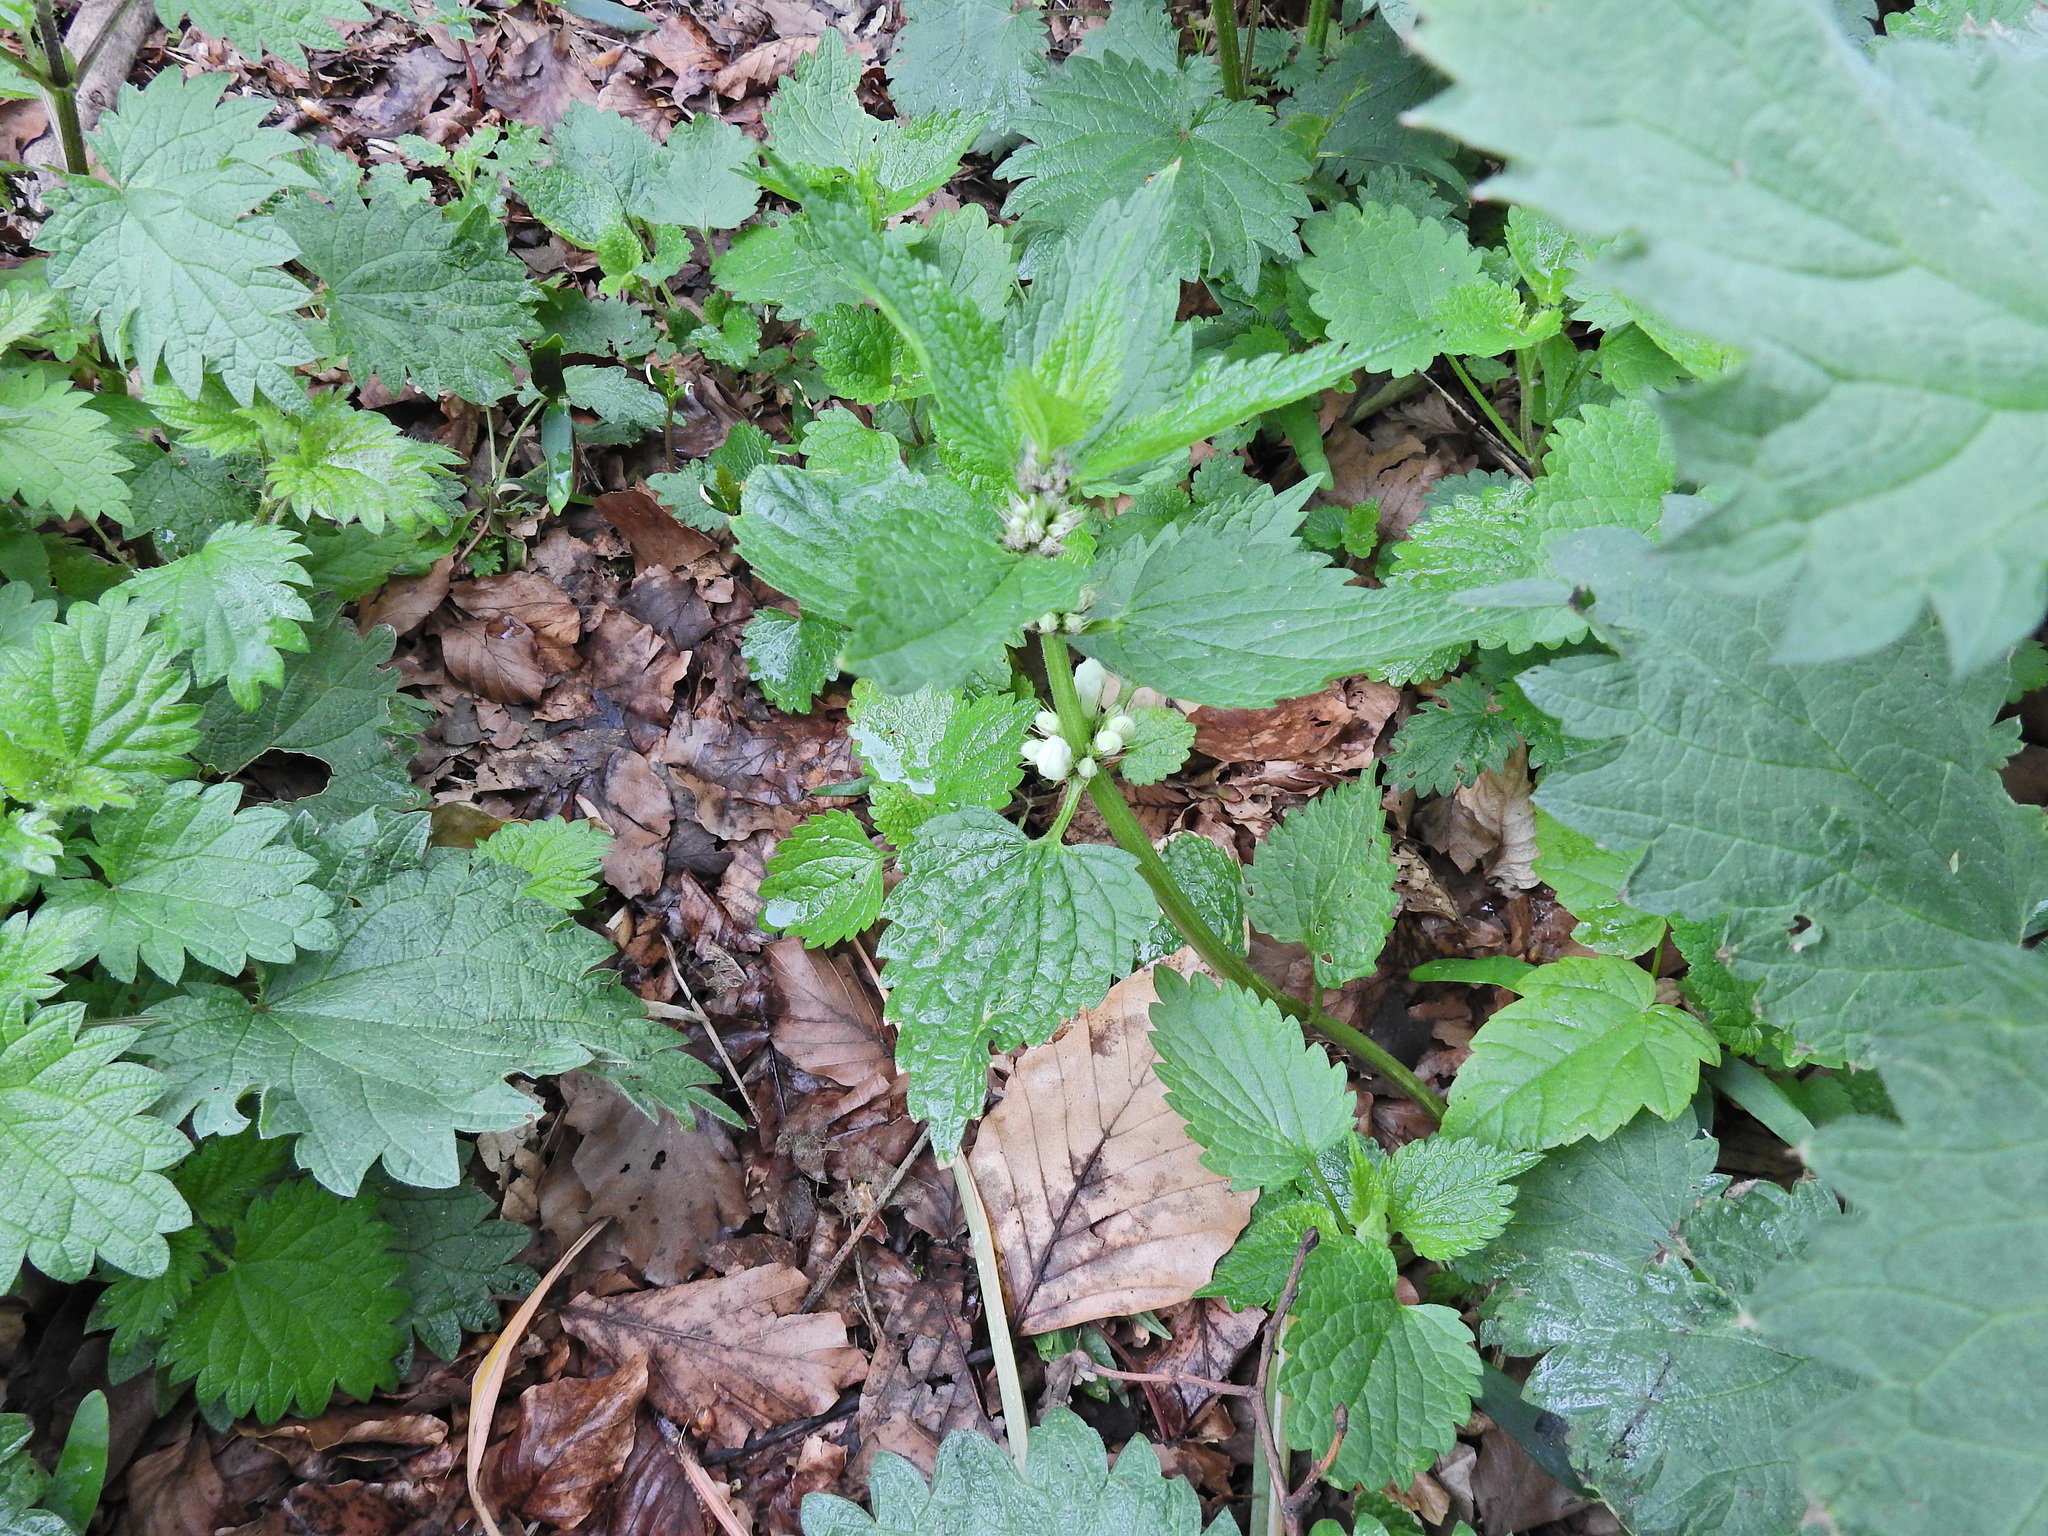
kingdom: Plantae
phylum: Tracheophyta
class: Magnoliopsida
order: Lamiales
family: Lamiaceae
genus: Lamium
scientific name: Lamium album
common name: White dead-nettle
